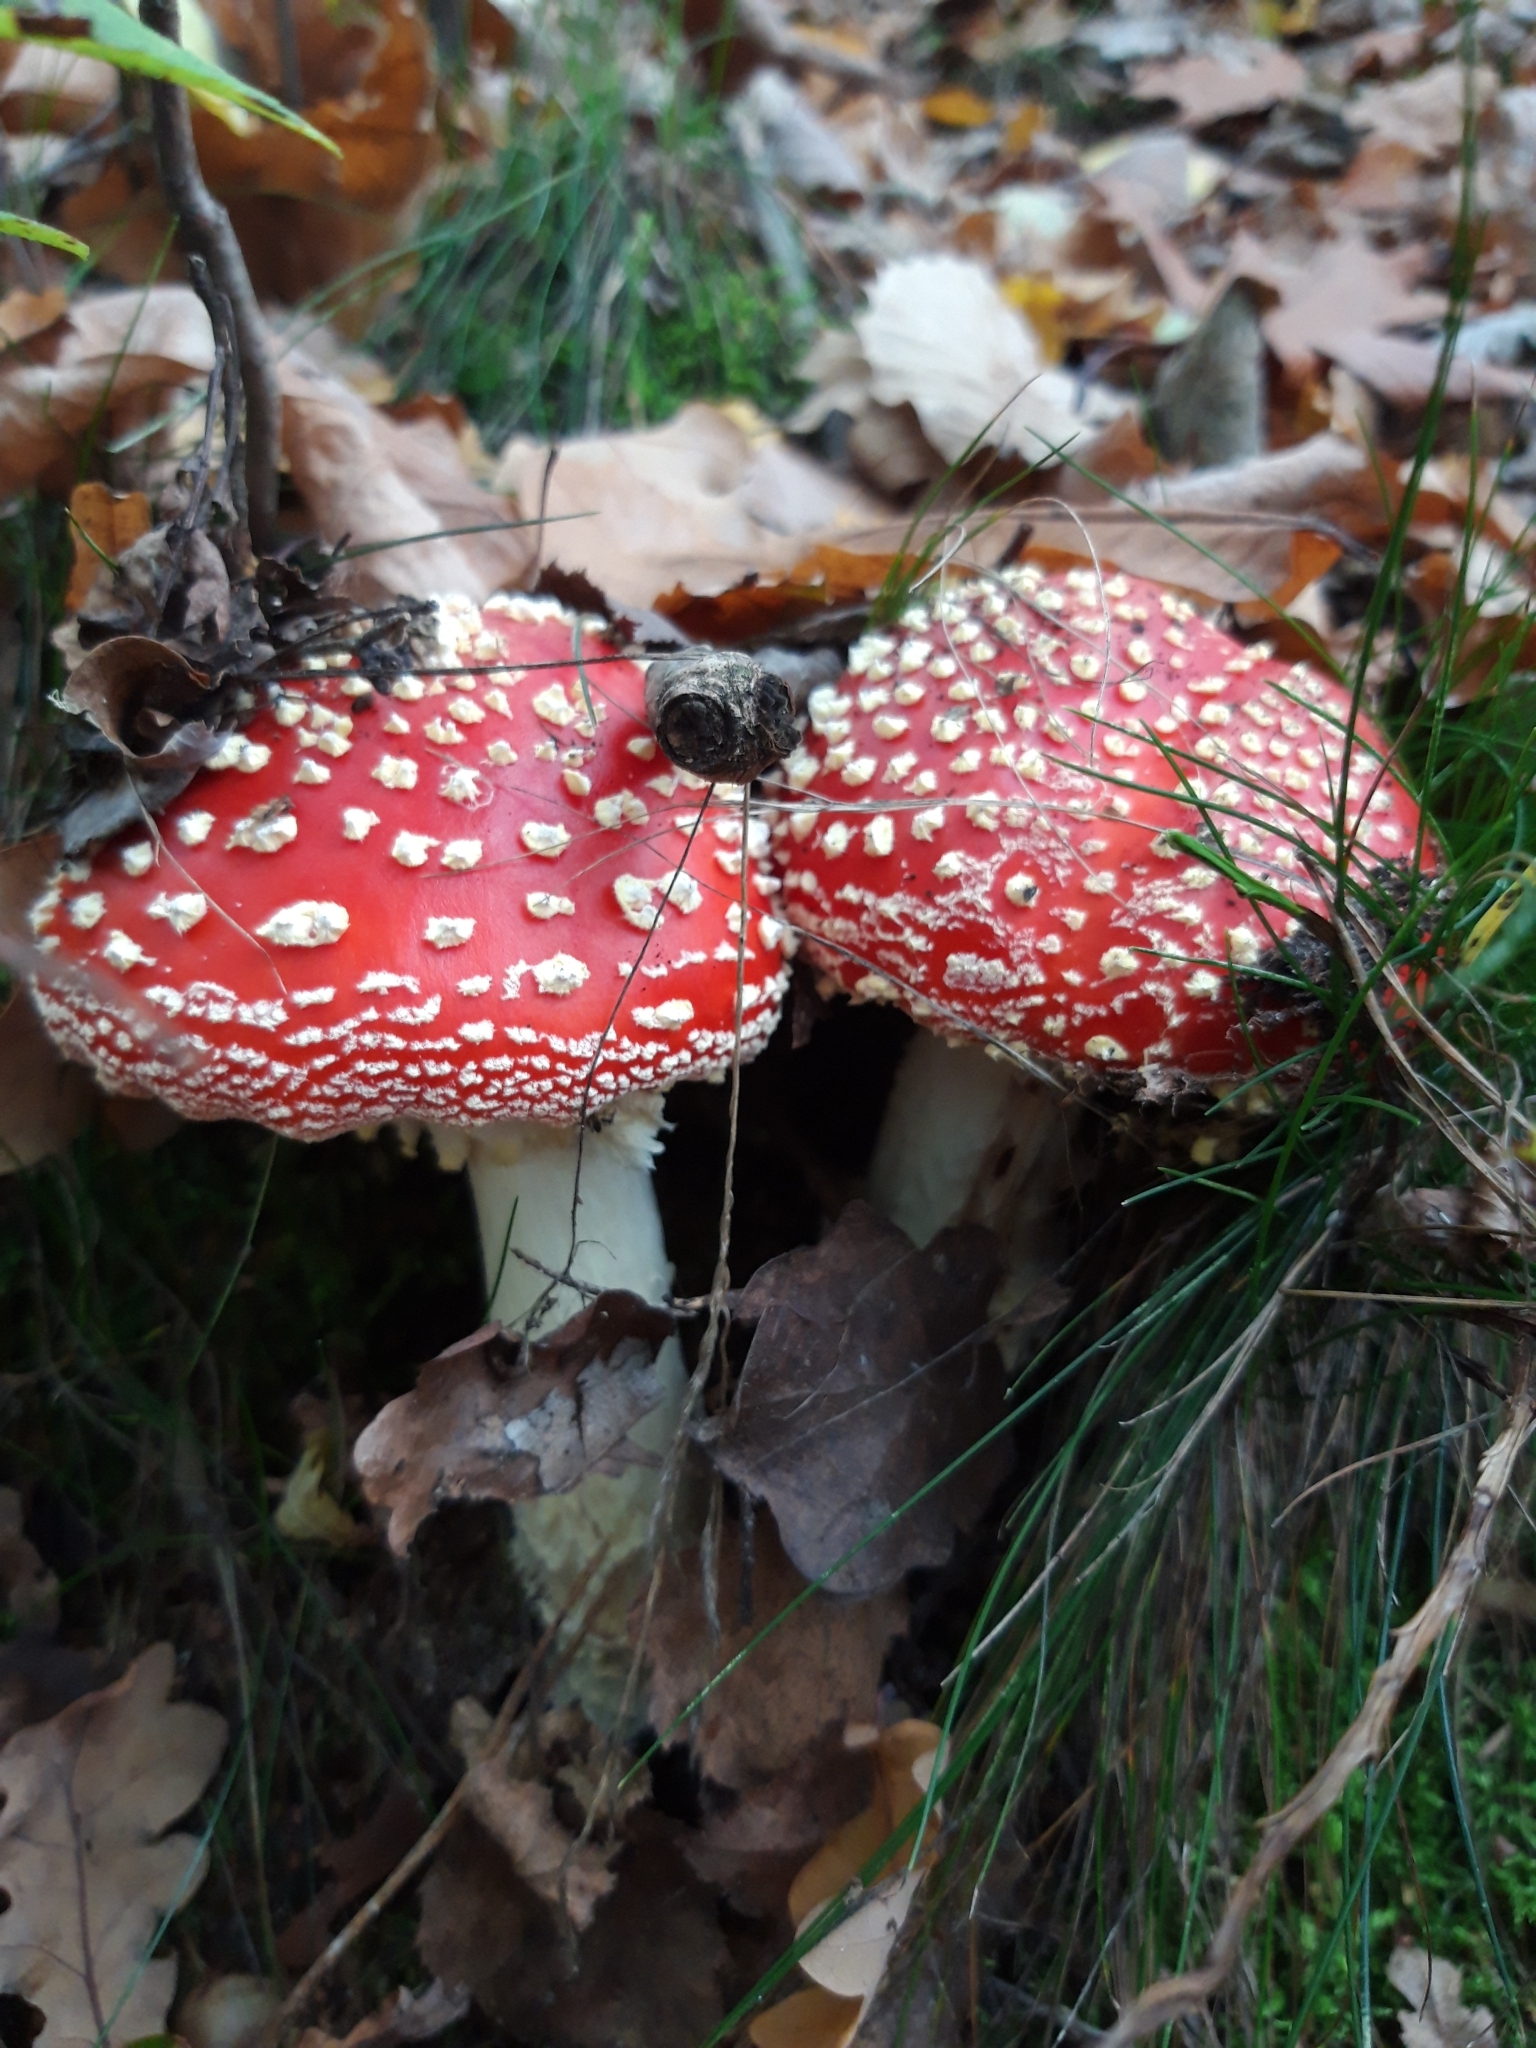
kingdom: Fungi
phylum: Basidiomycota
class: Agaricomycetes
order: Agaricales
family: Amanitaceae
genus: Amanita
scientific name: Amanita muscaria
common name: Fly agaric
